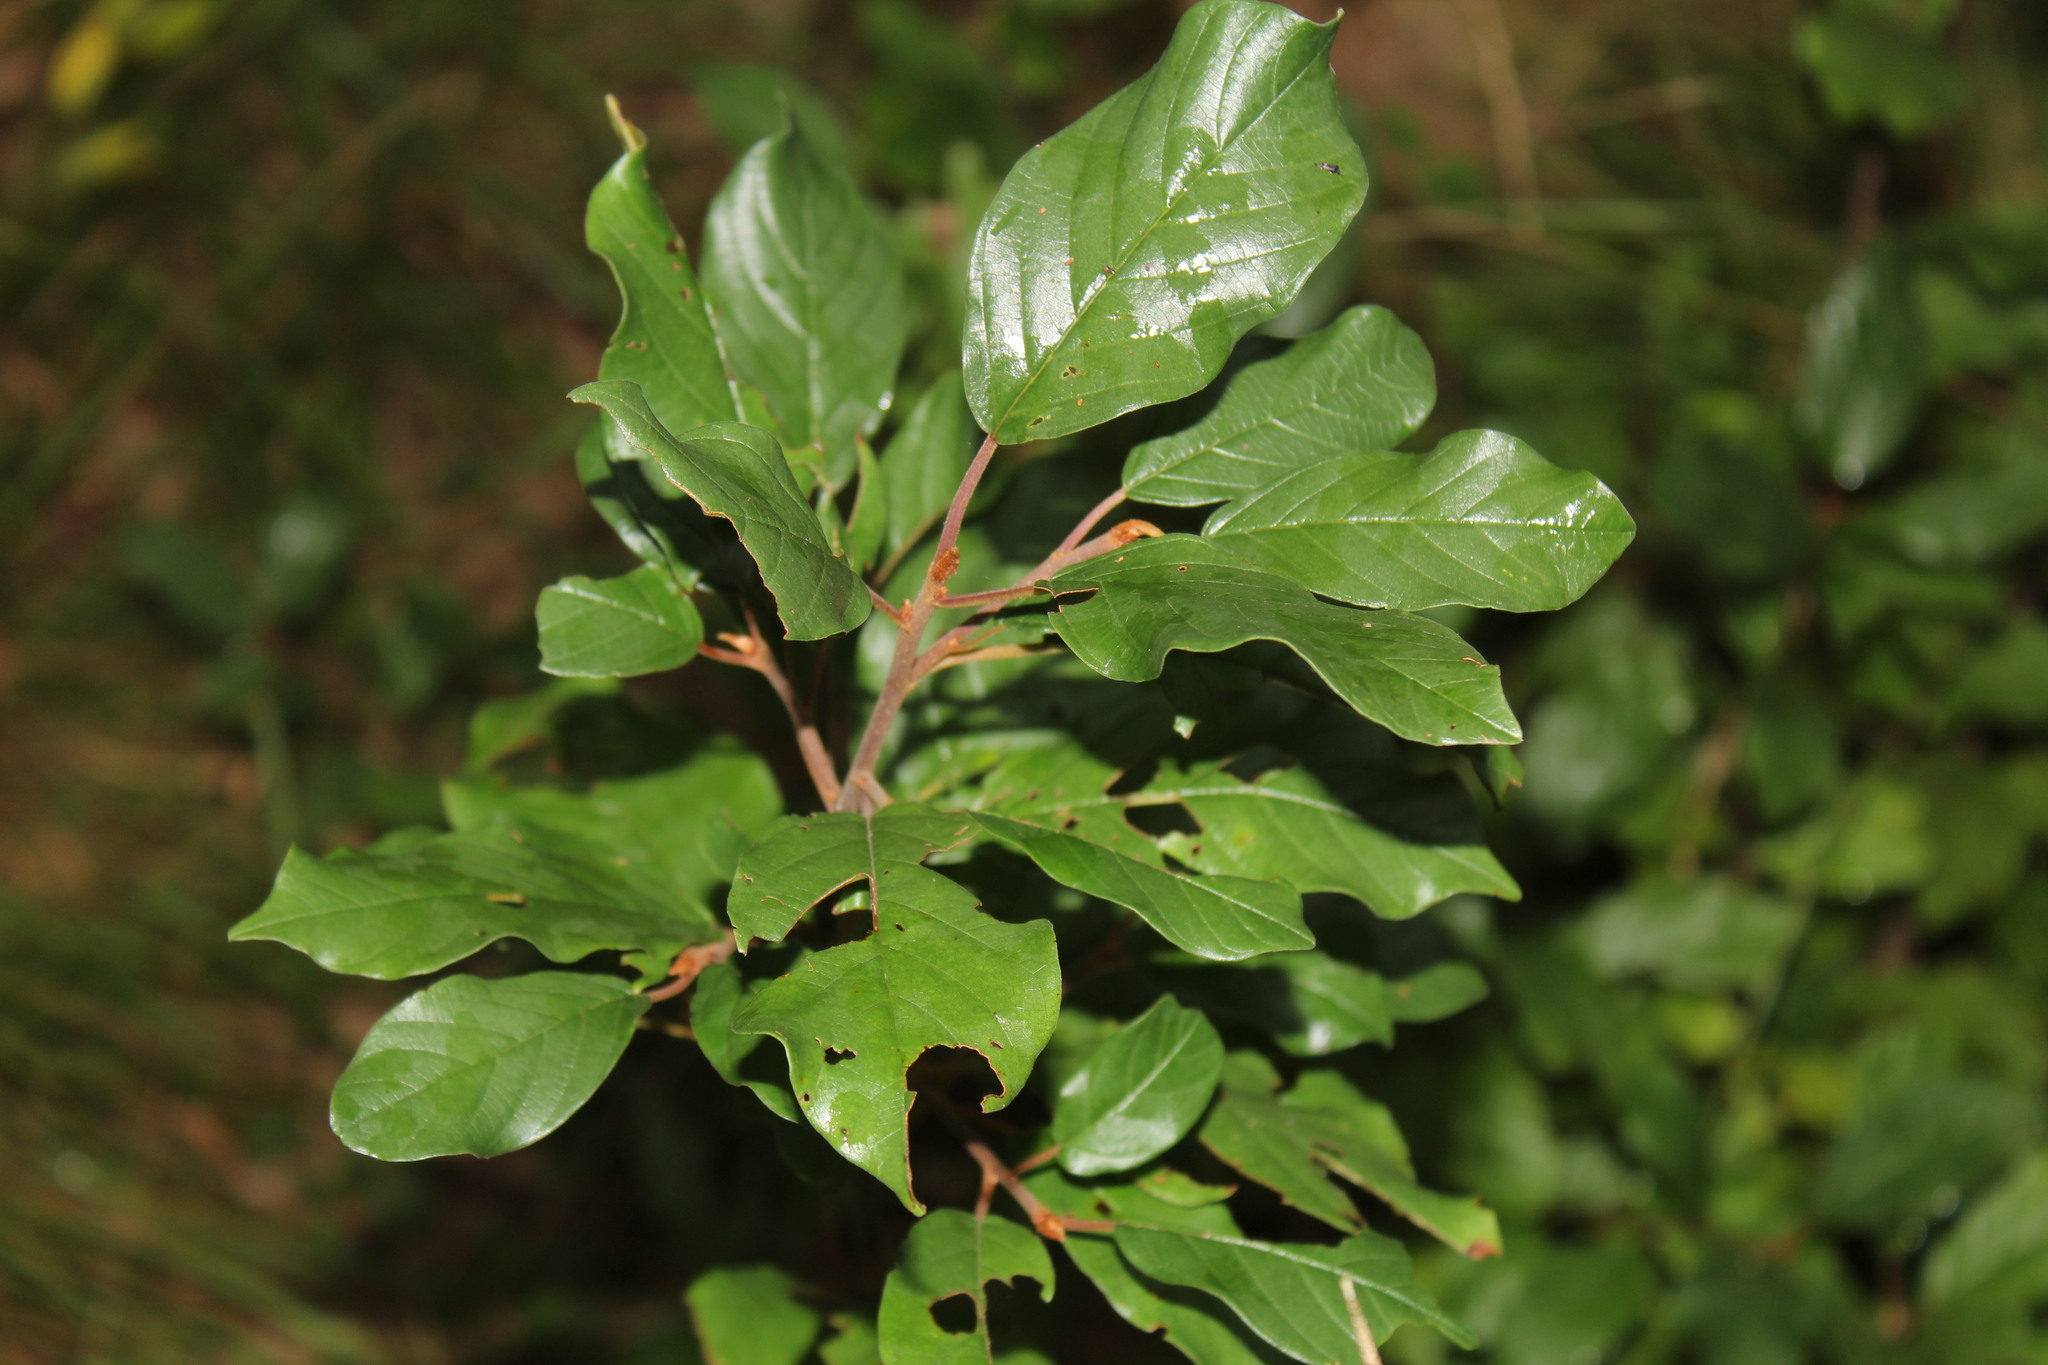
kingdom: Plantae
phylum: Tracheophyta
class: Magnoliopsida
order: Rosales
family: Rhamnaceae
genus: Frangula
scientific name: Frangula alnus
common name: Alder buckthorn
